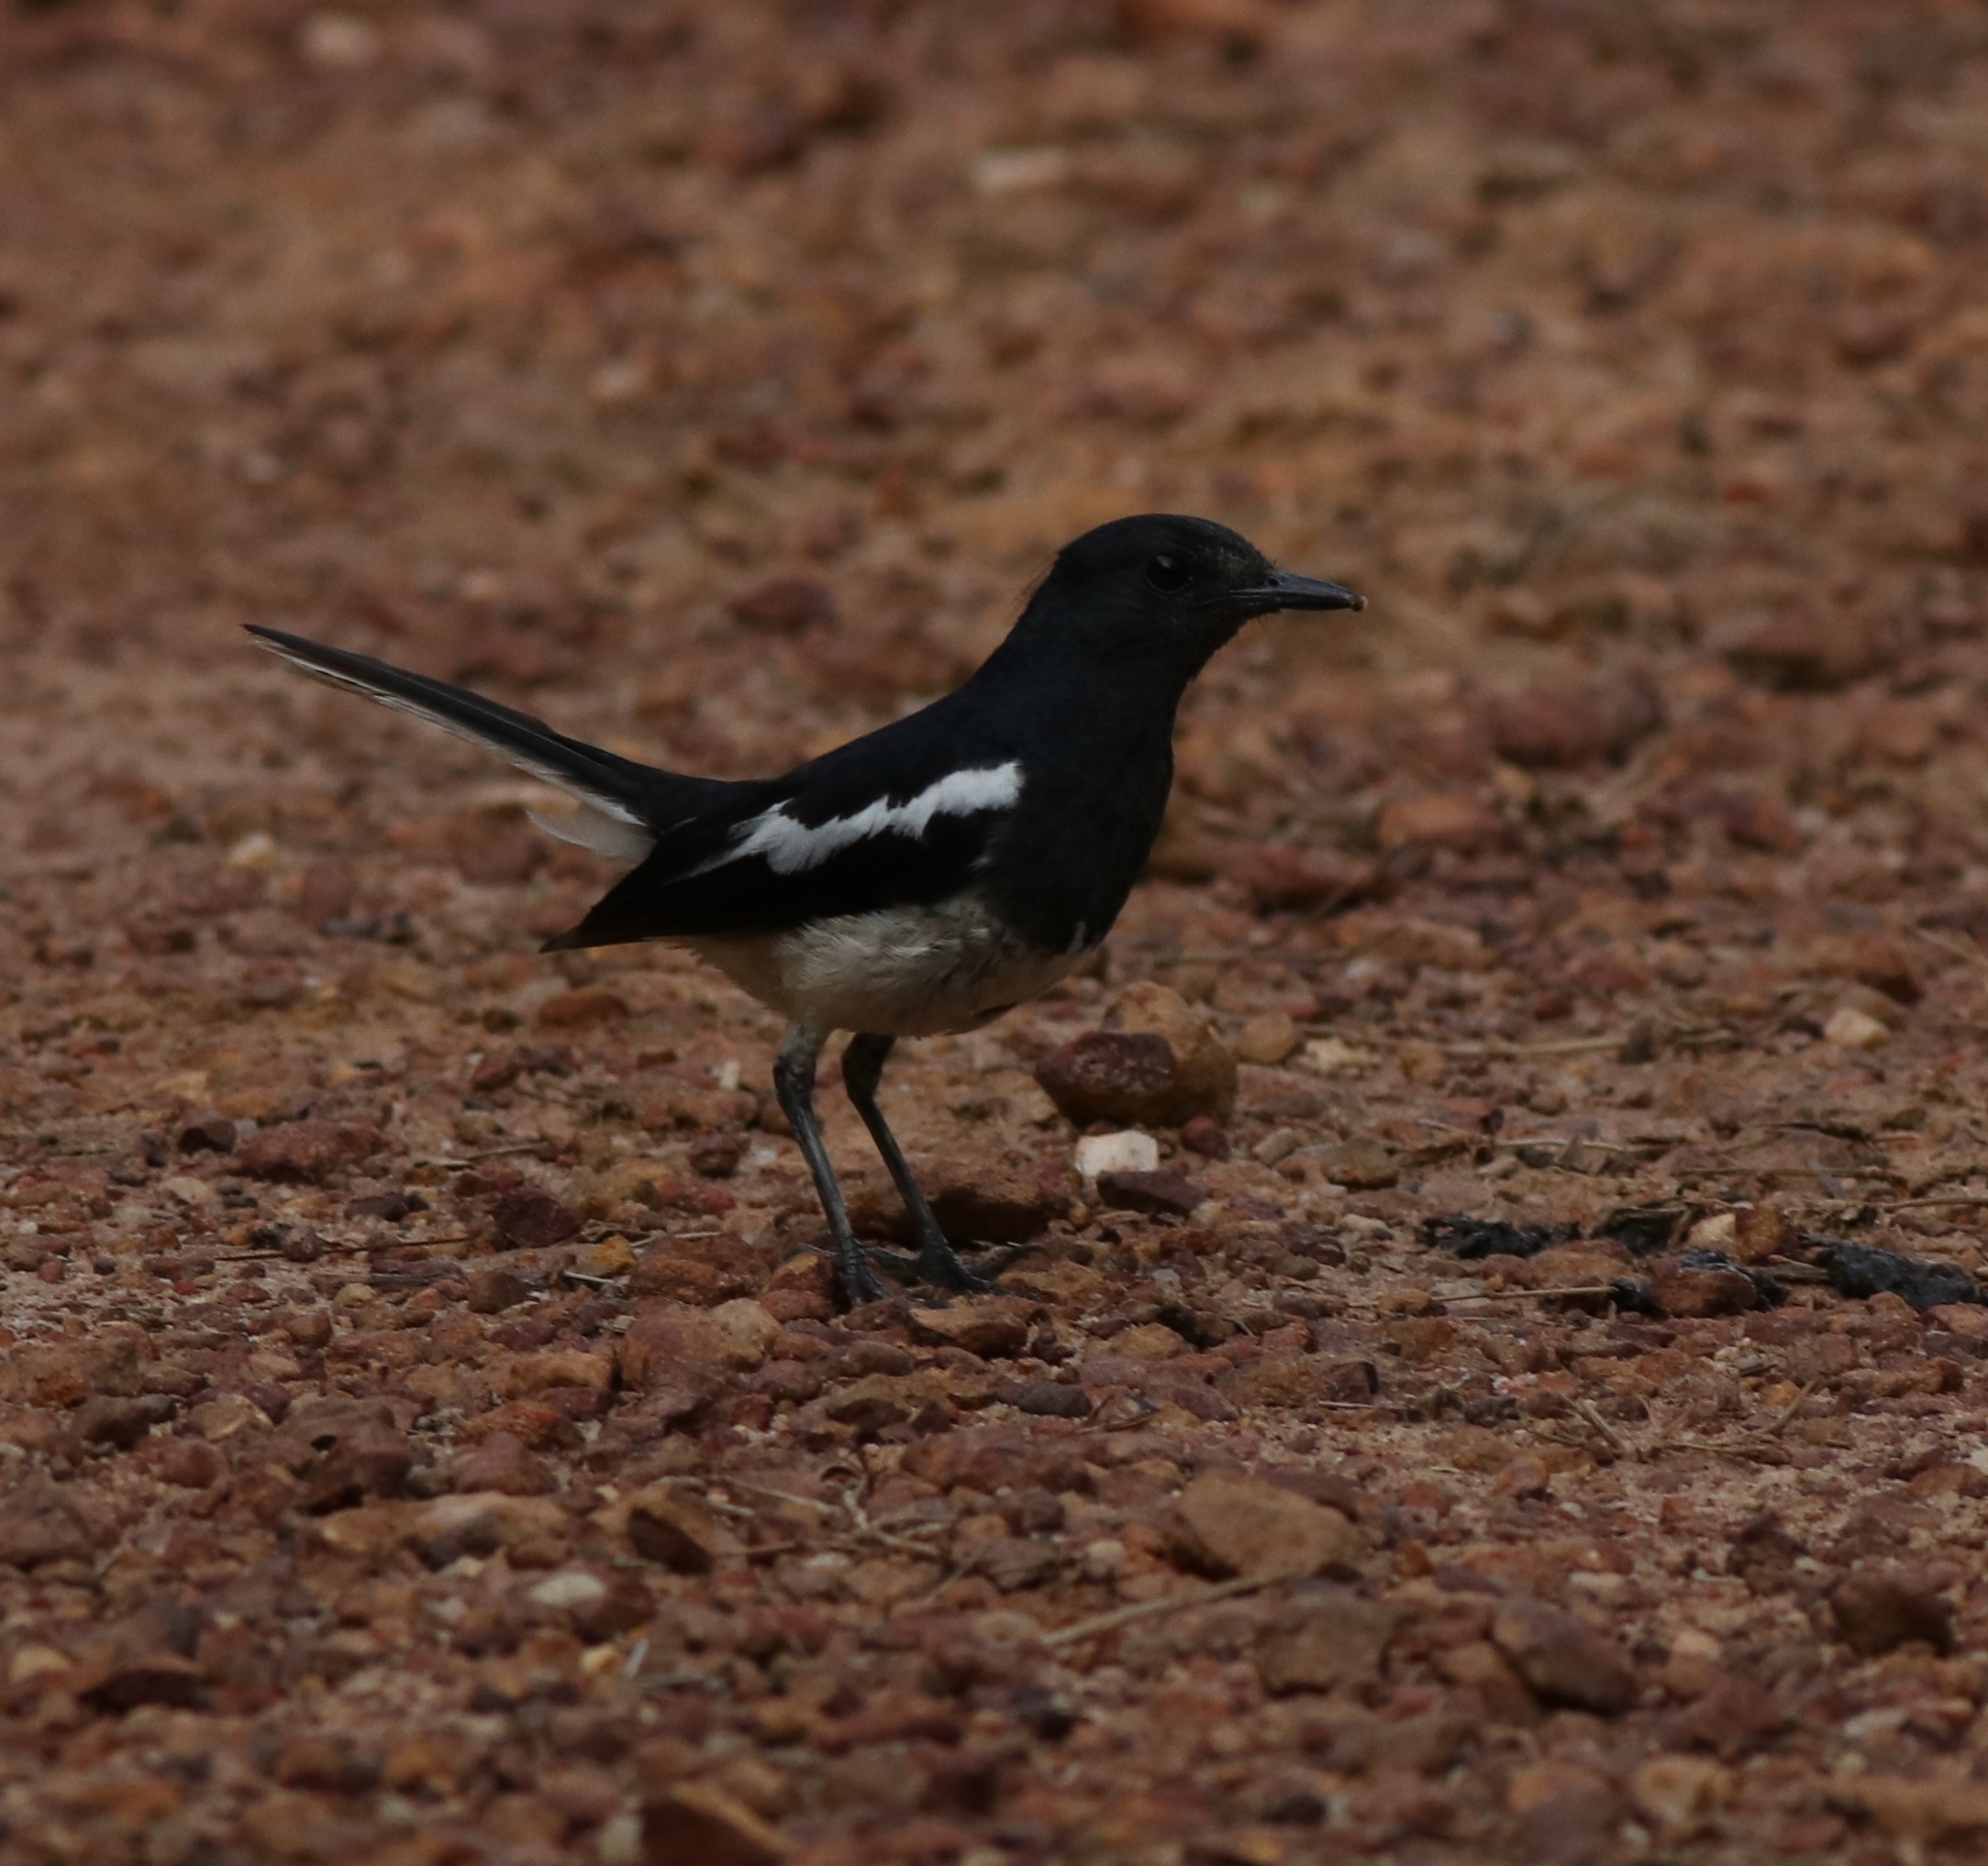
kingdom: Animalia
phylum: Chordata
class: Aves
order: Passeriformes
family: Muscicapidae
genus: Copsychus
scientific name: Copsychus saularis
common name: Oriental magpie-robin
